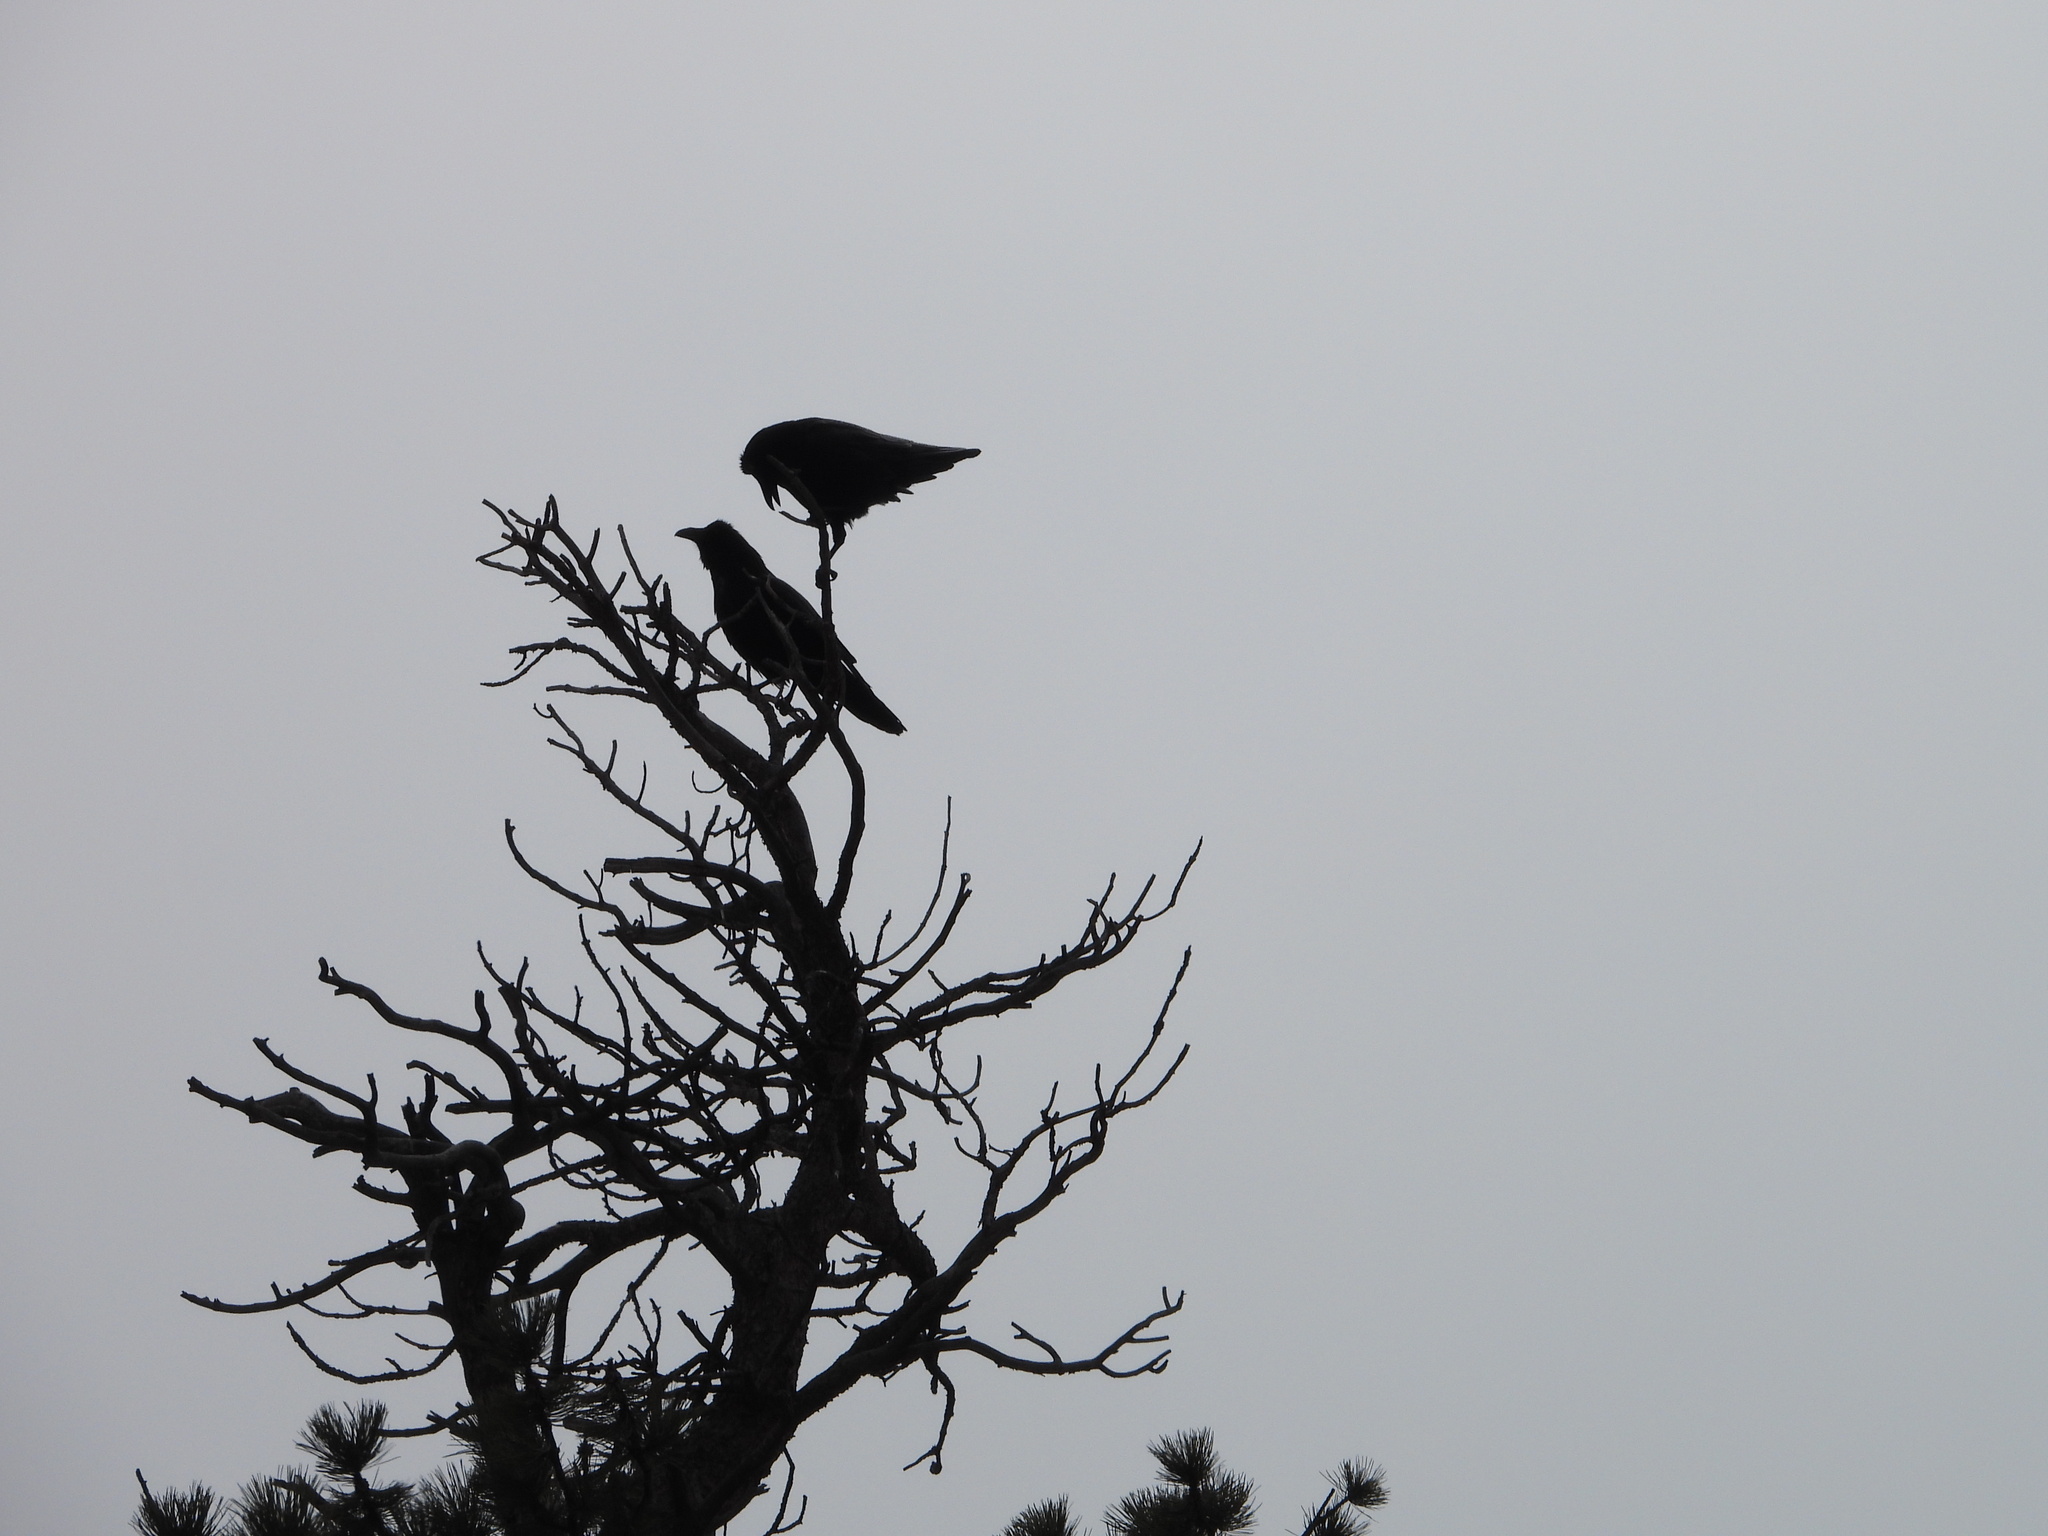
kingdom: Animalia
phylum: Chordata
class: Aves
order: Passeriformes
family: Corvidae
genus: Corvus
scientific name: Corvus corax
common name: Common raven
